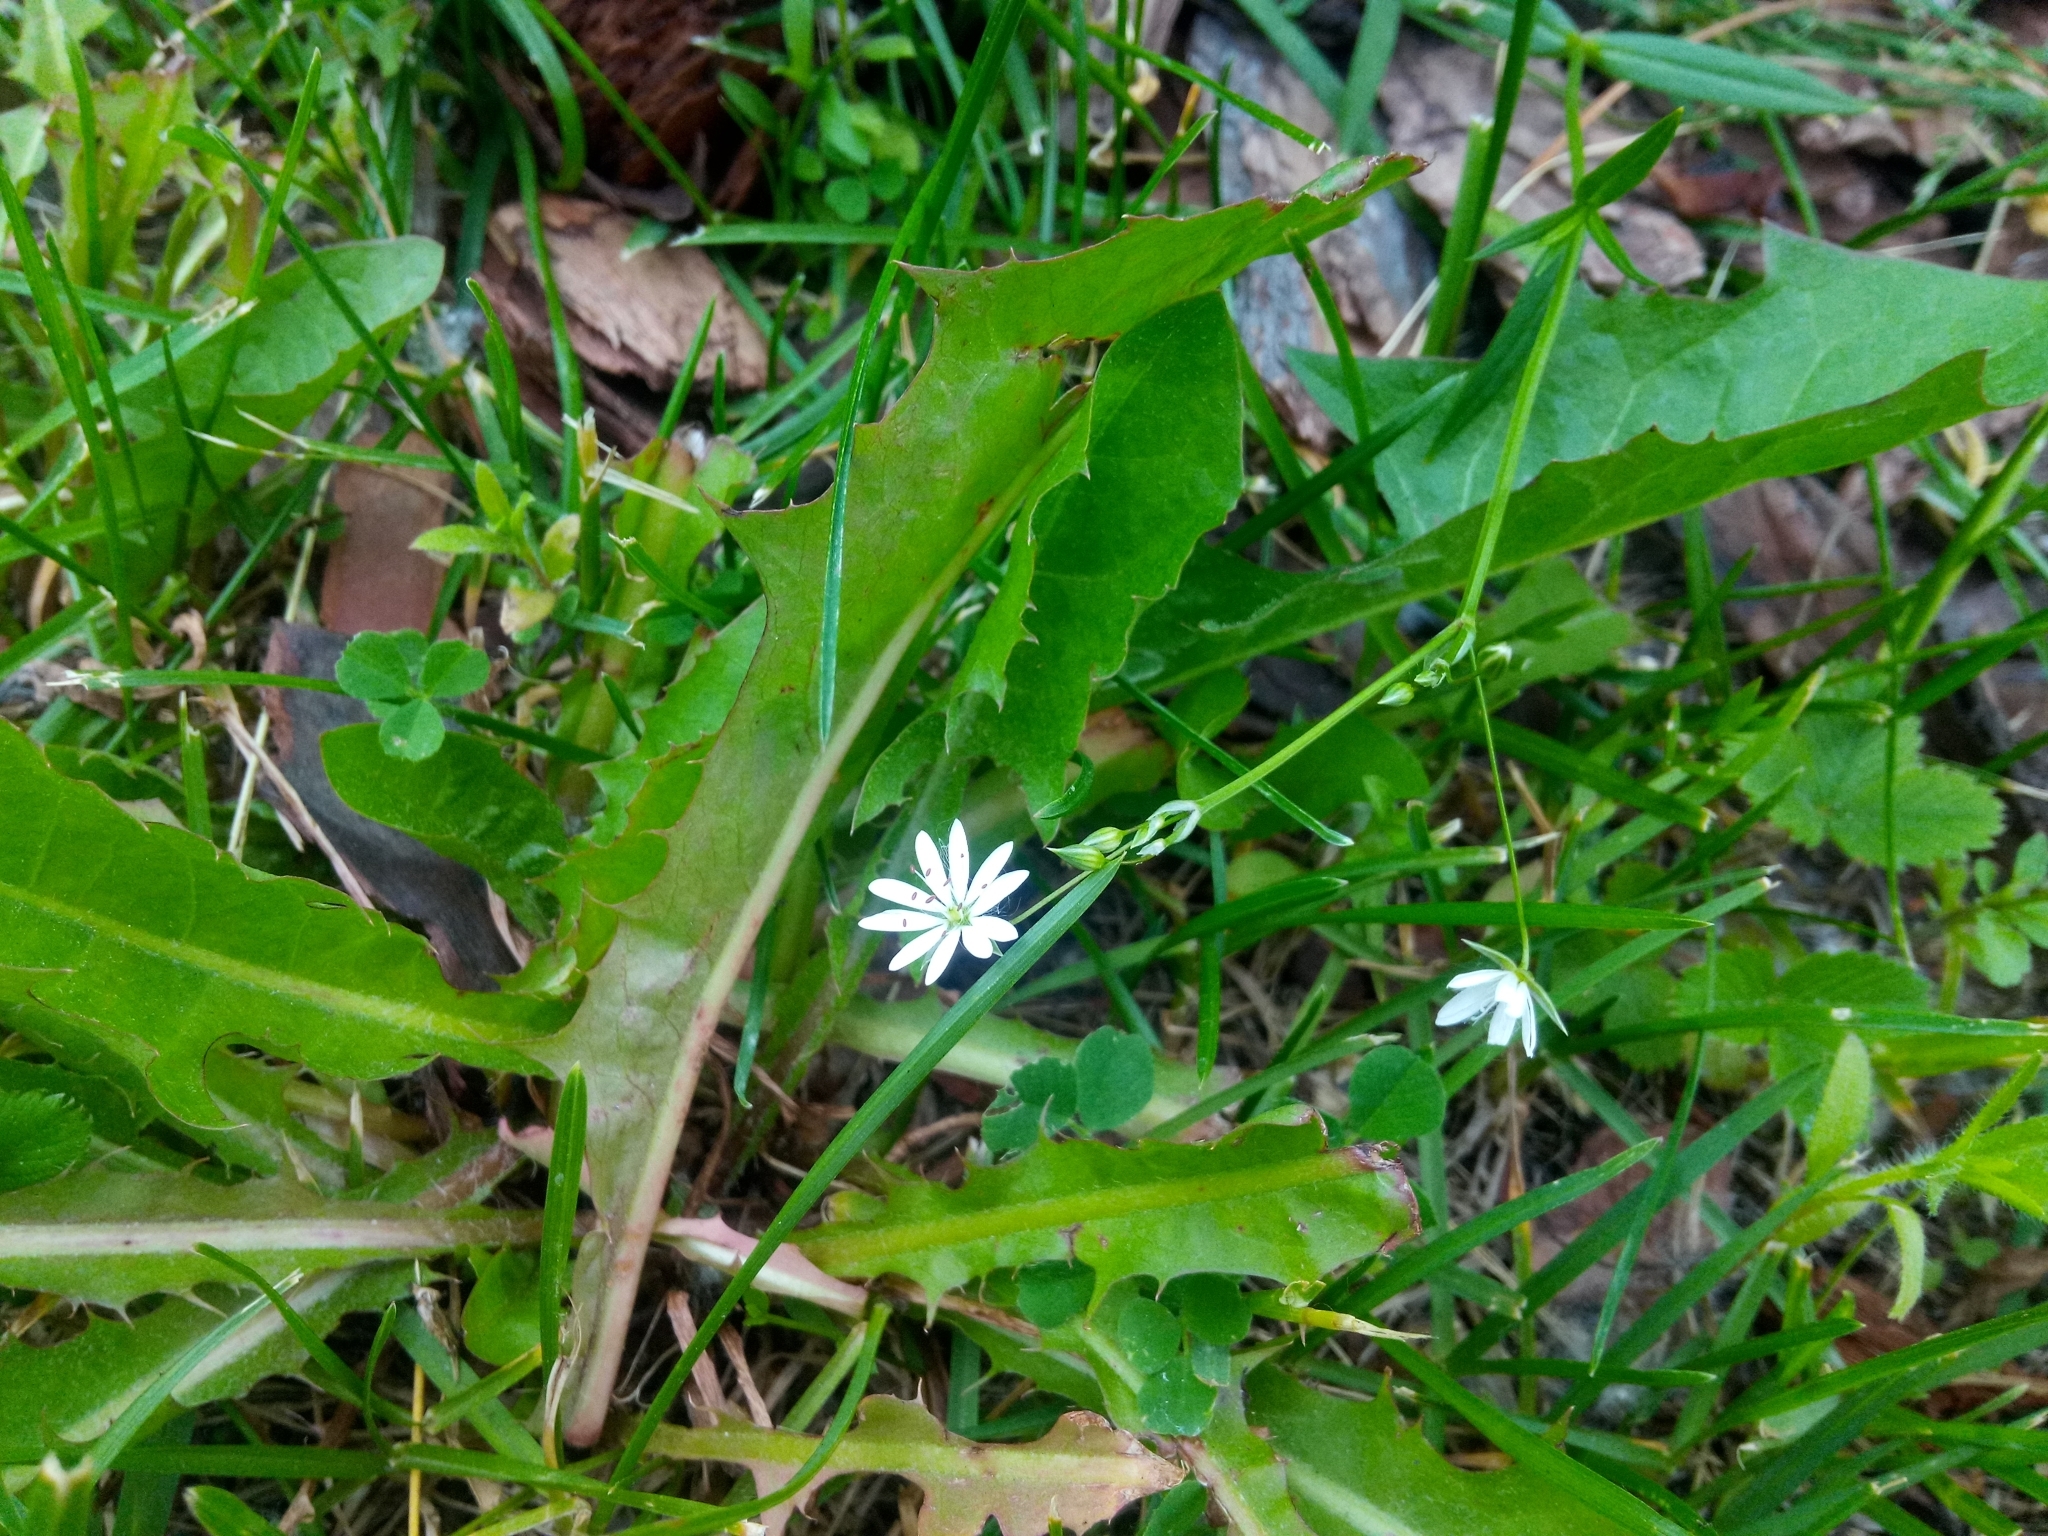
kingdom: Plantae
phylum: Tracheophyta
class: Magnoliopsida
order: Caryophyllales
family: Caryophyllaceae
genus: Stellaria
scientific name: Stellaria graminea
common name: Grass-like starwort
